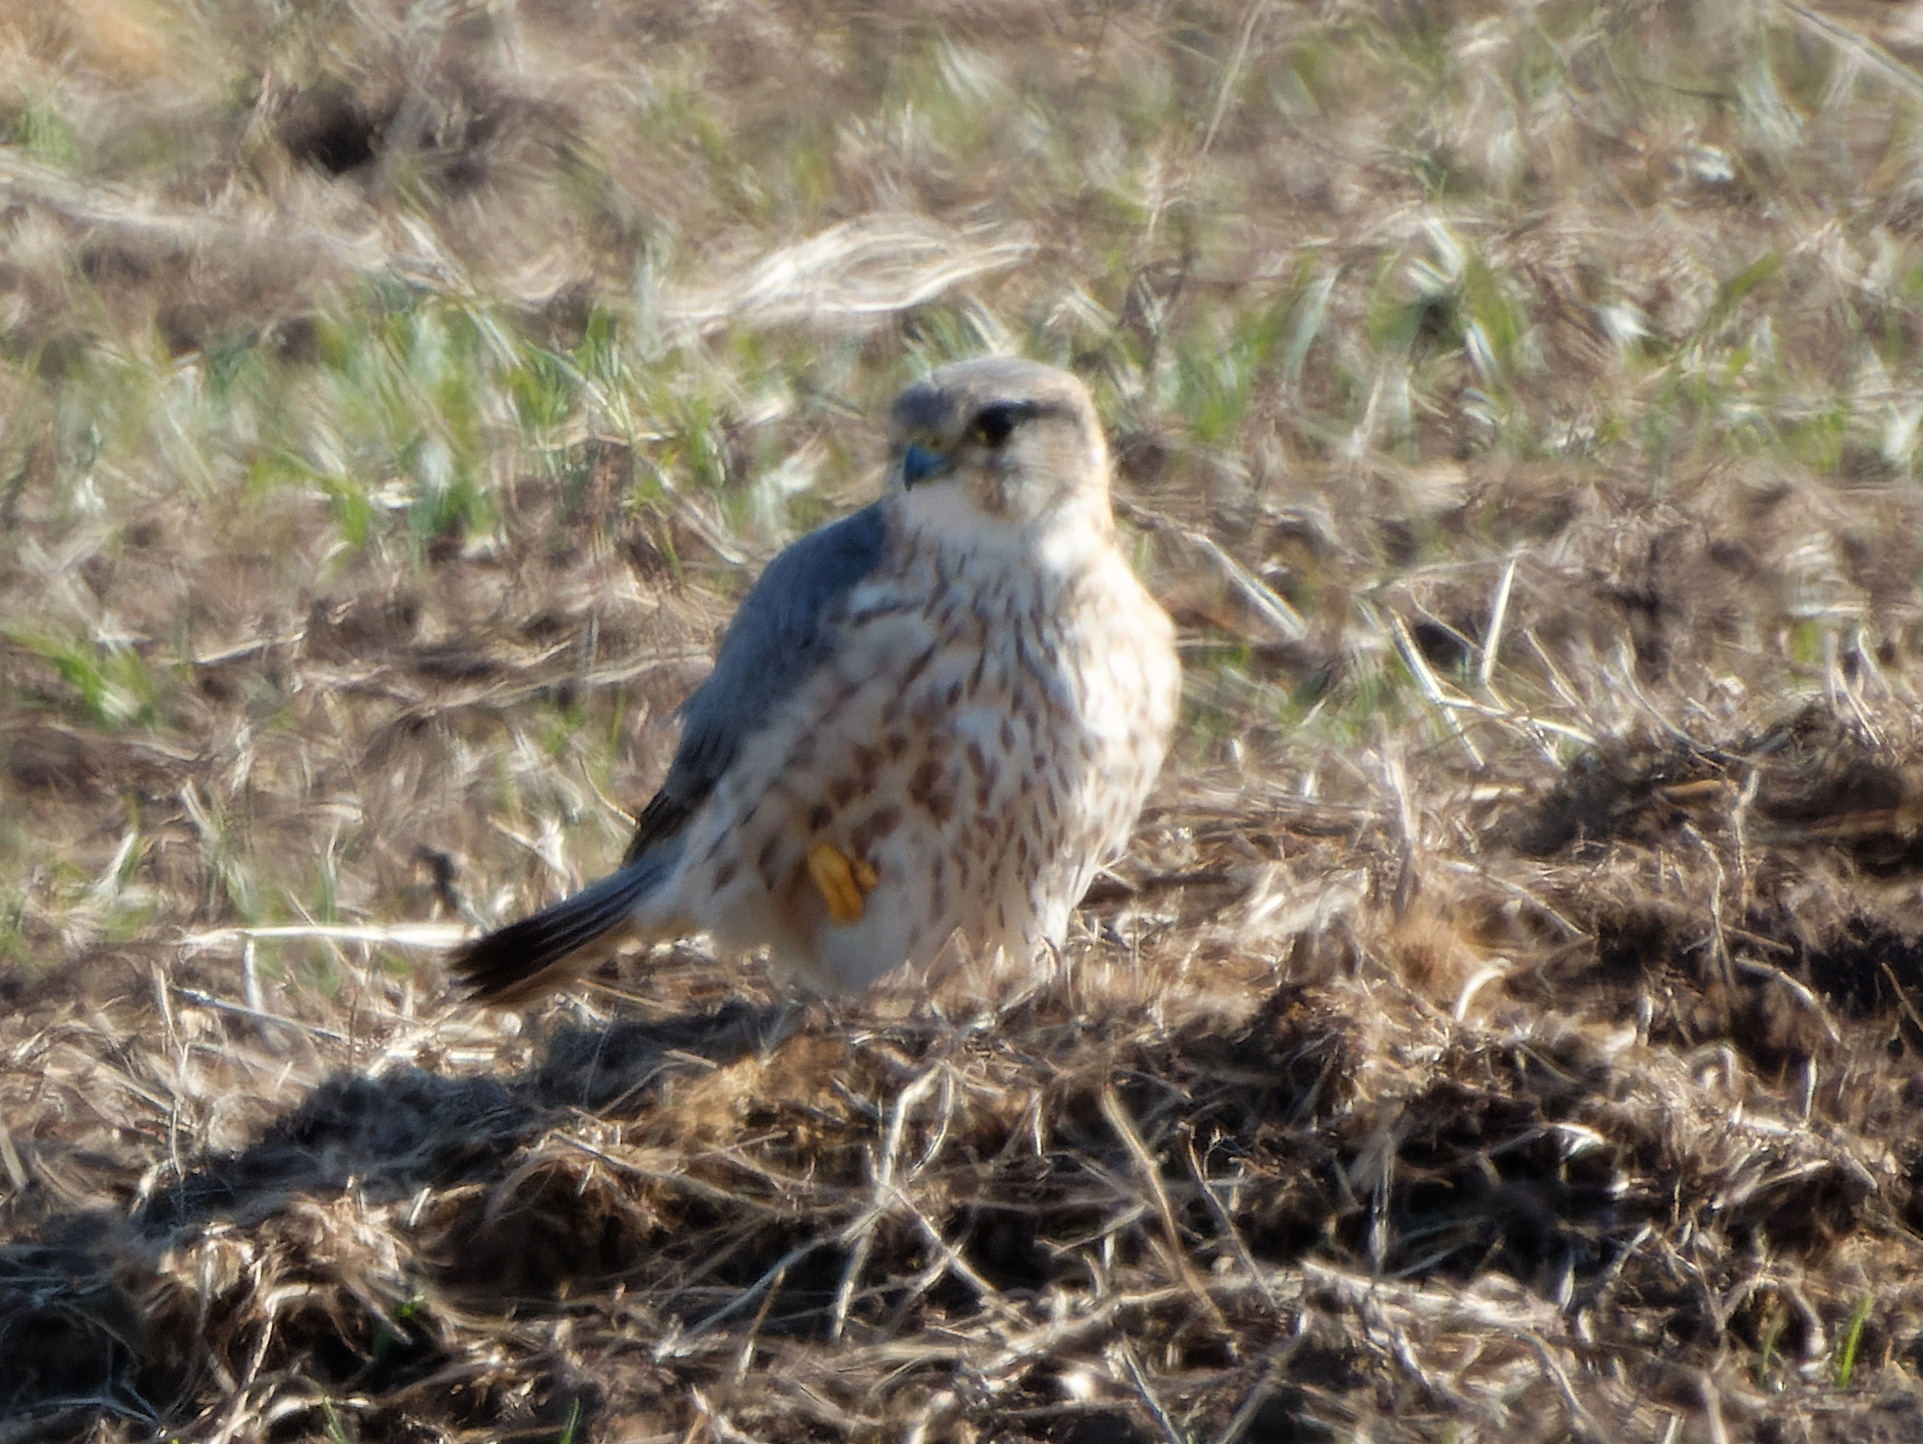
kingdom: Animalia
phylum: Chordata
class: Aves
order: Falconiformes
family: Falconidae
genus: Falco
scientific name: Falco columbarius
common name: Merlin
